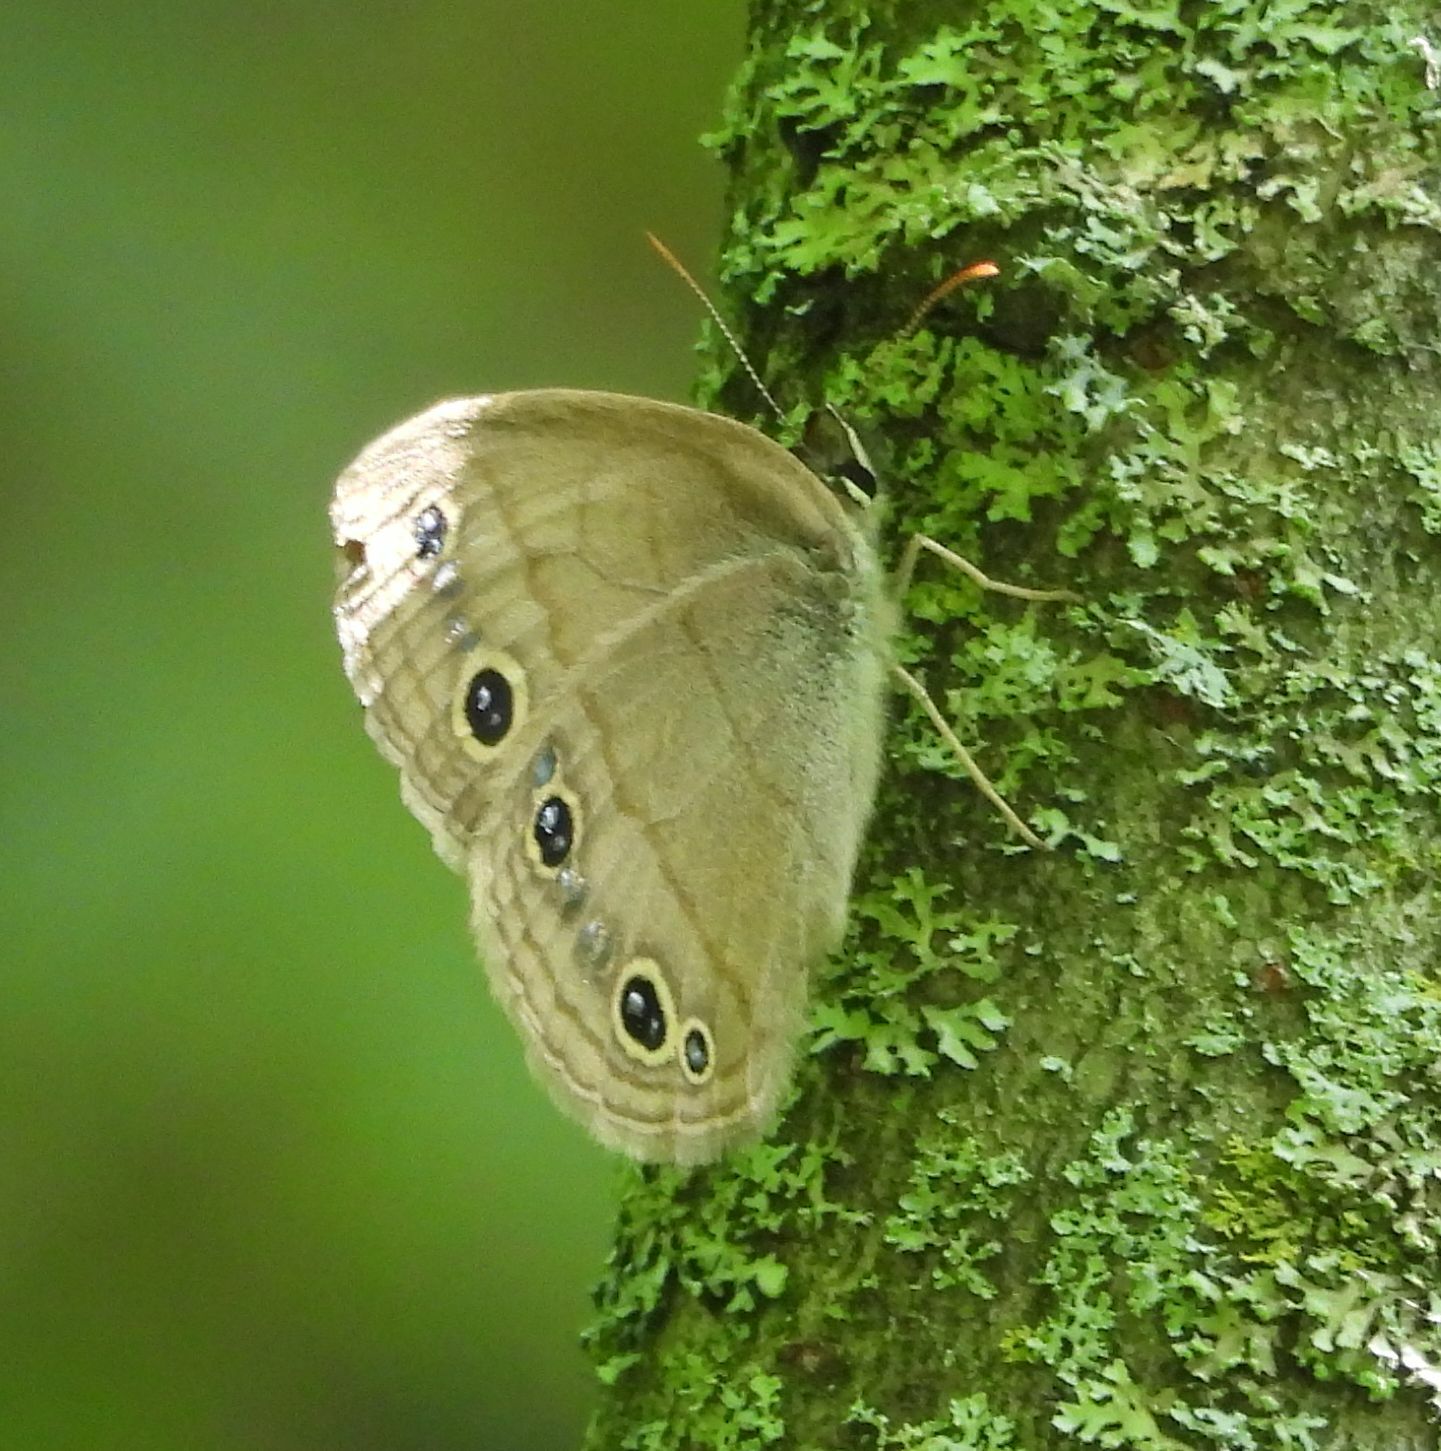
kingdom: Animalia
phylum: Arthropoda
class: Insecta
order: Lepidoptera
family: Nymphalidae
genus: Euptychia
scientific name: Euptychia cymela
